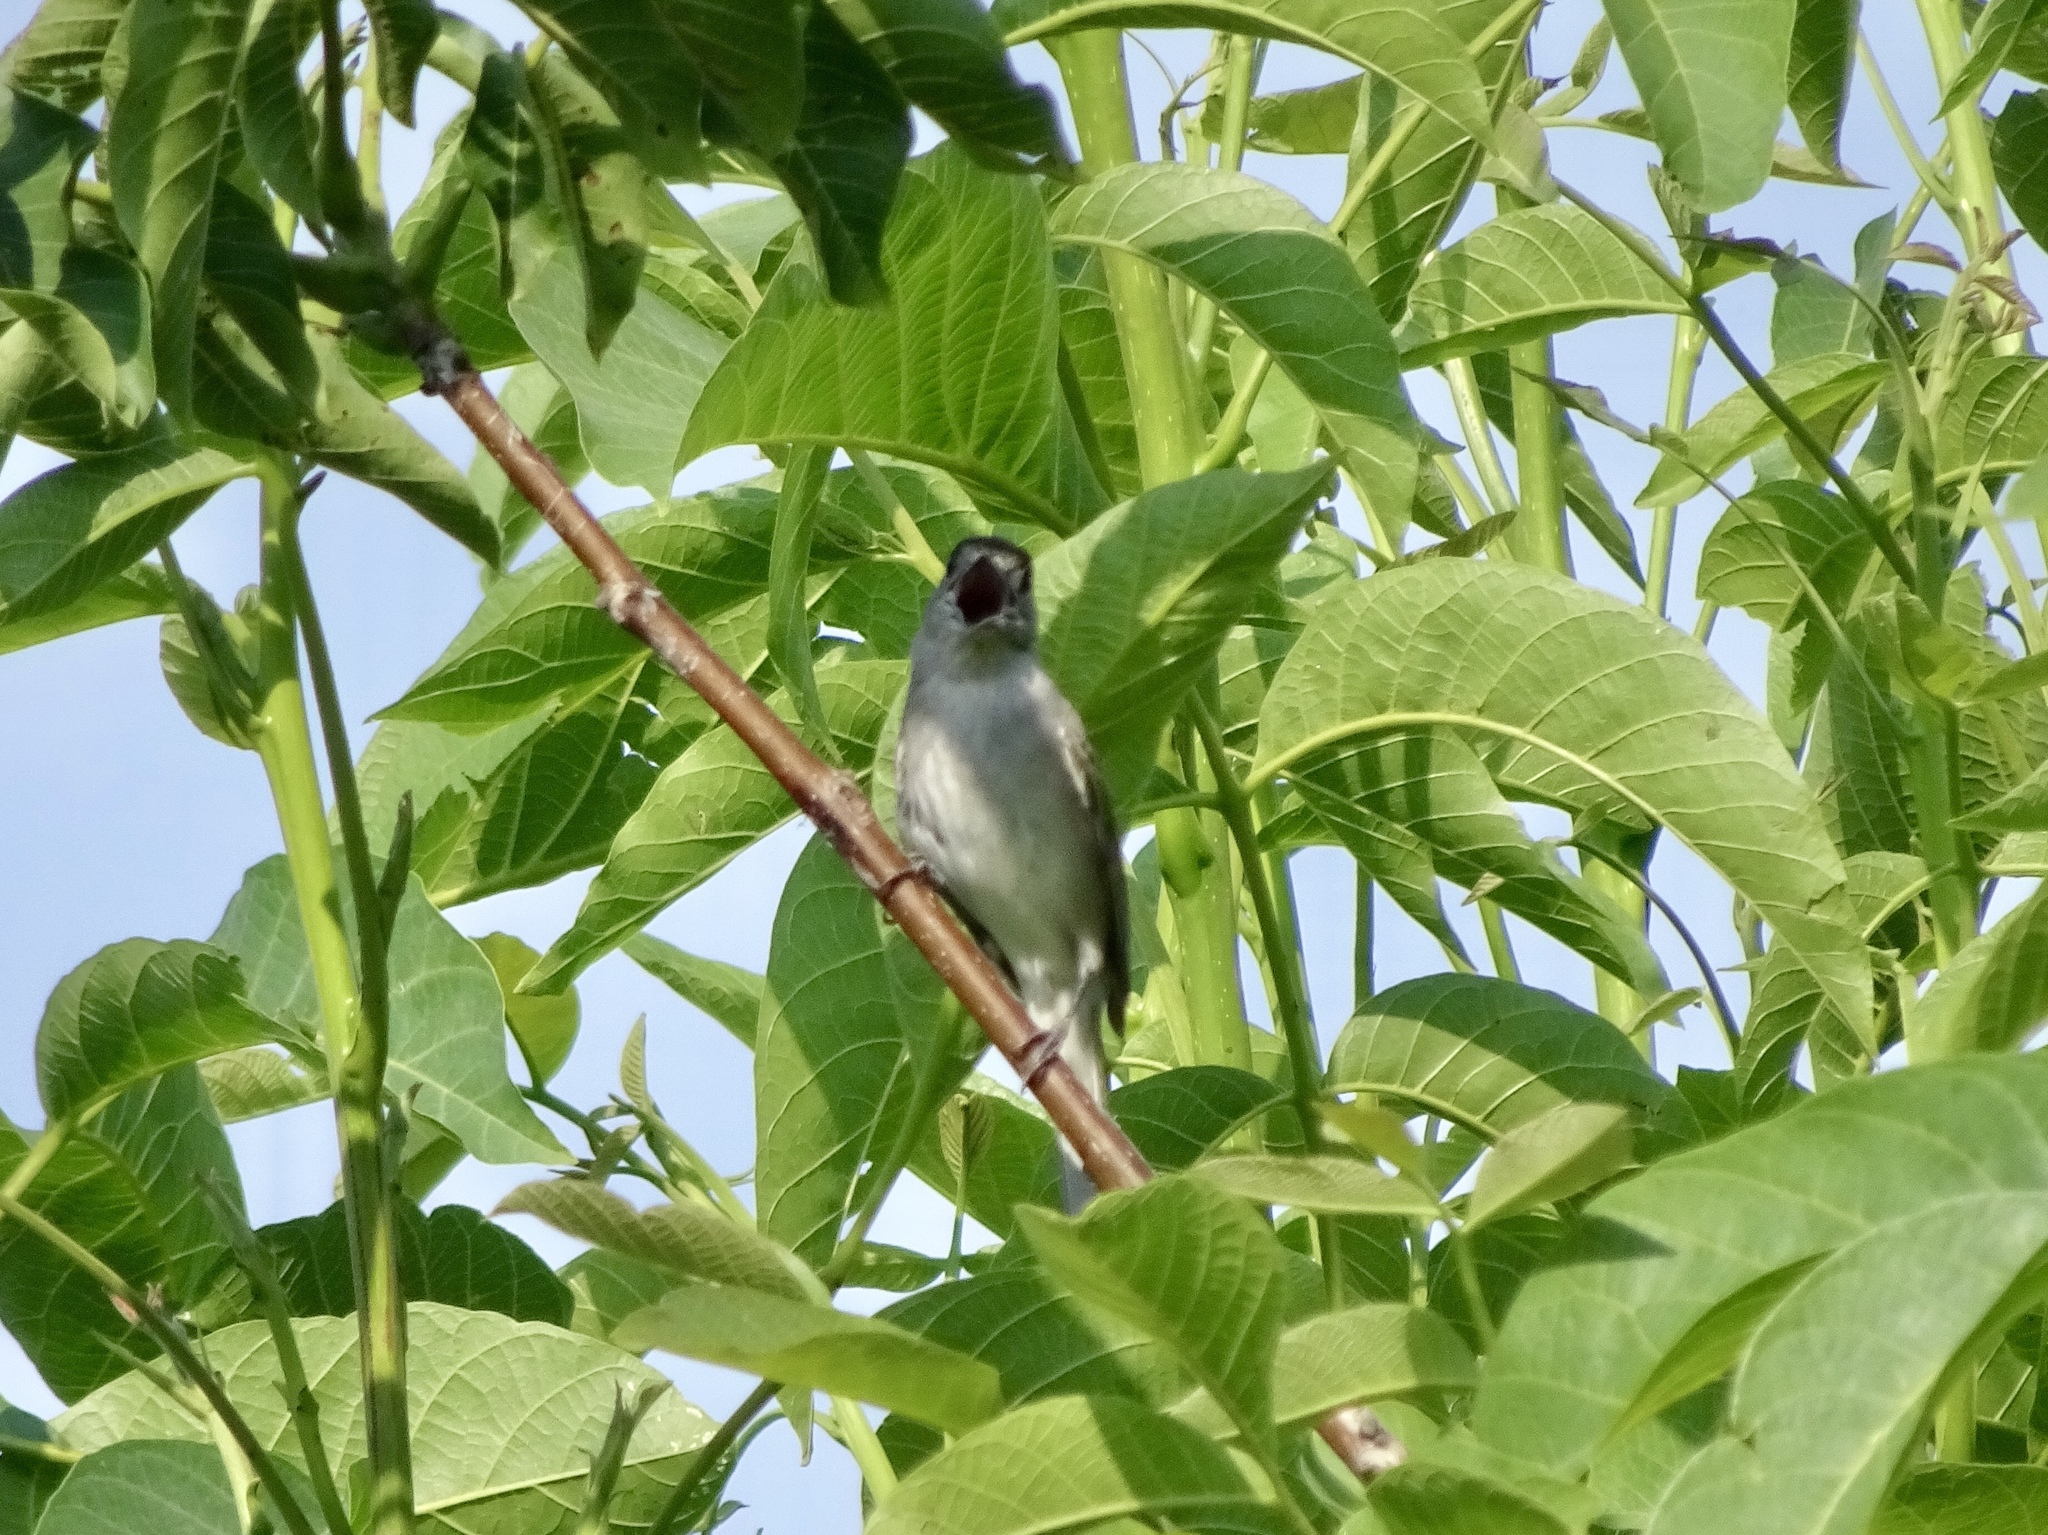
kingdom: Animalia
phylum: Chordata
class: Aves
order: Passeriformes
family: Sylviidae
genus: Sylvia
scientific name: Sylvia atricapilla
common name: Eurasian blackcap
